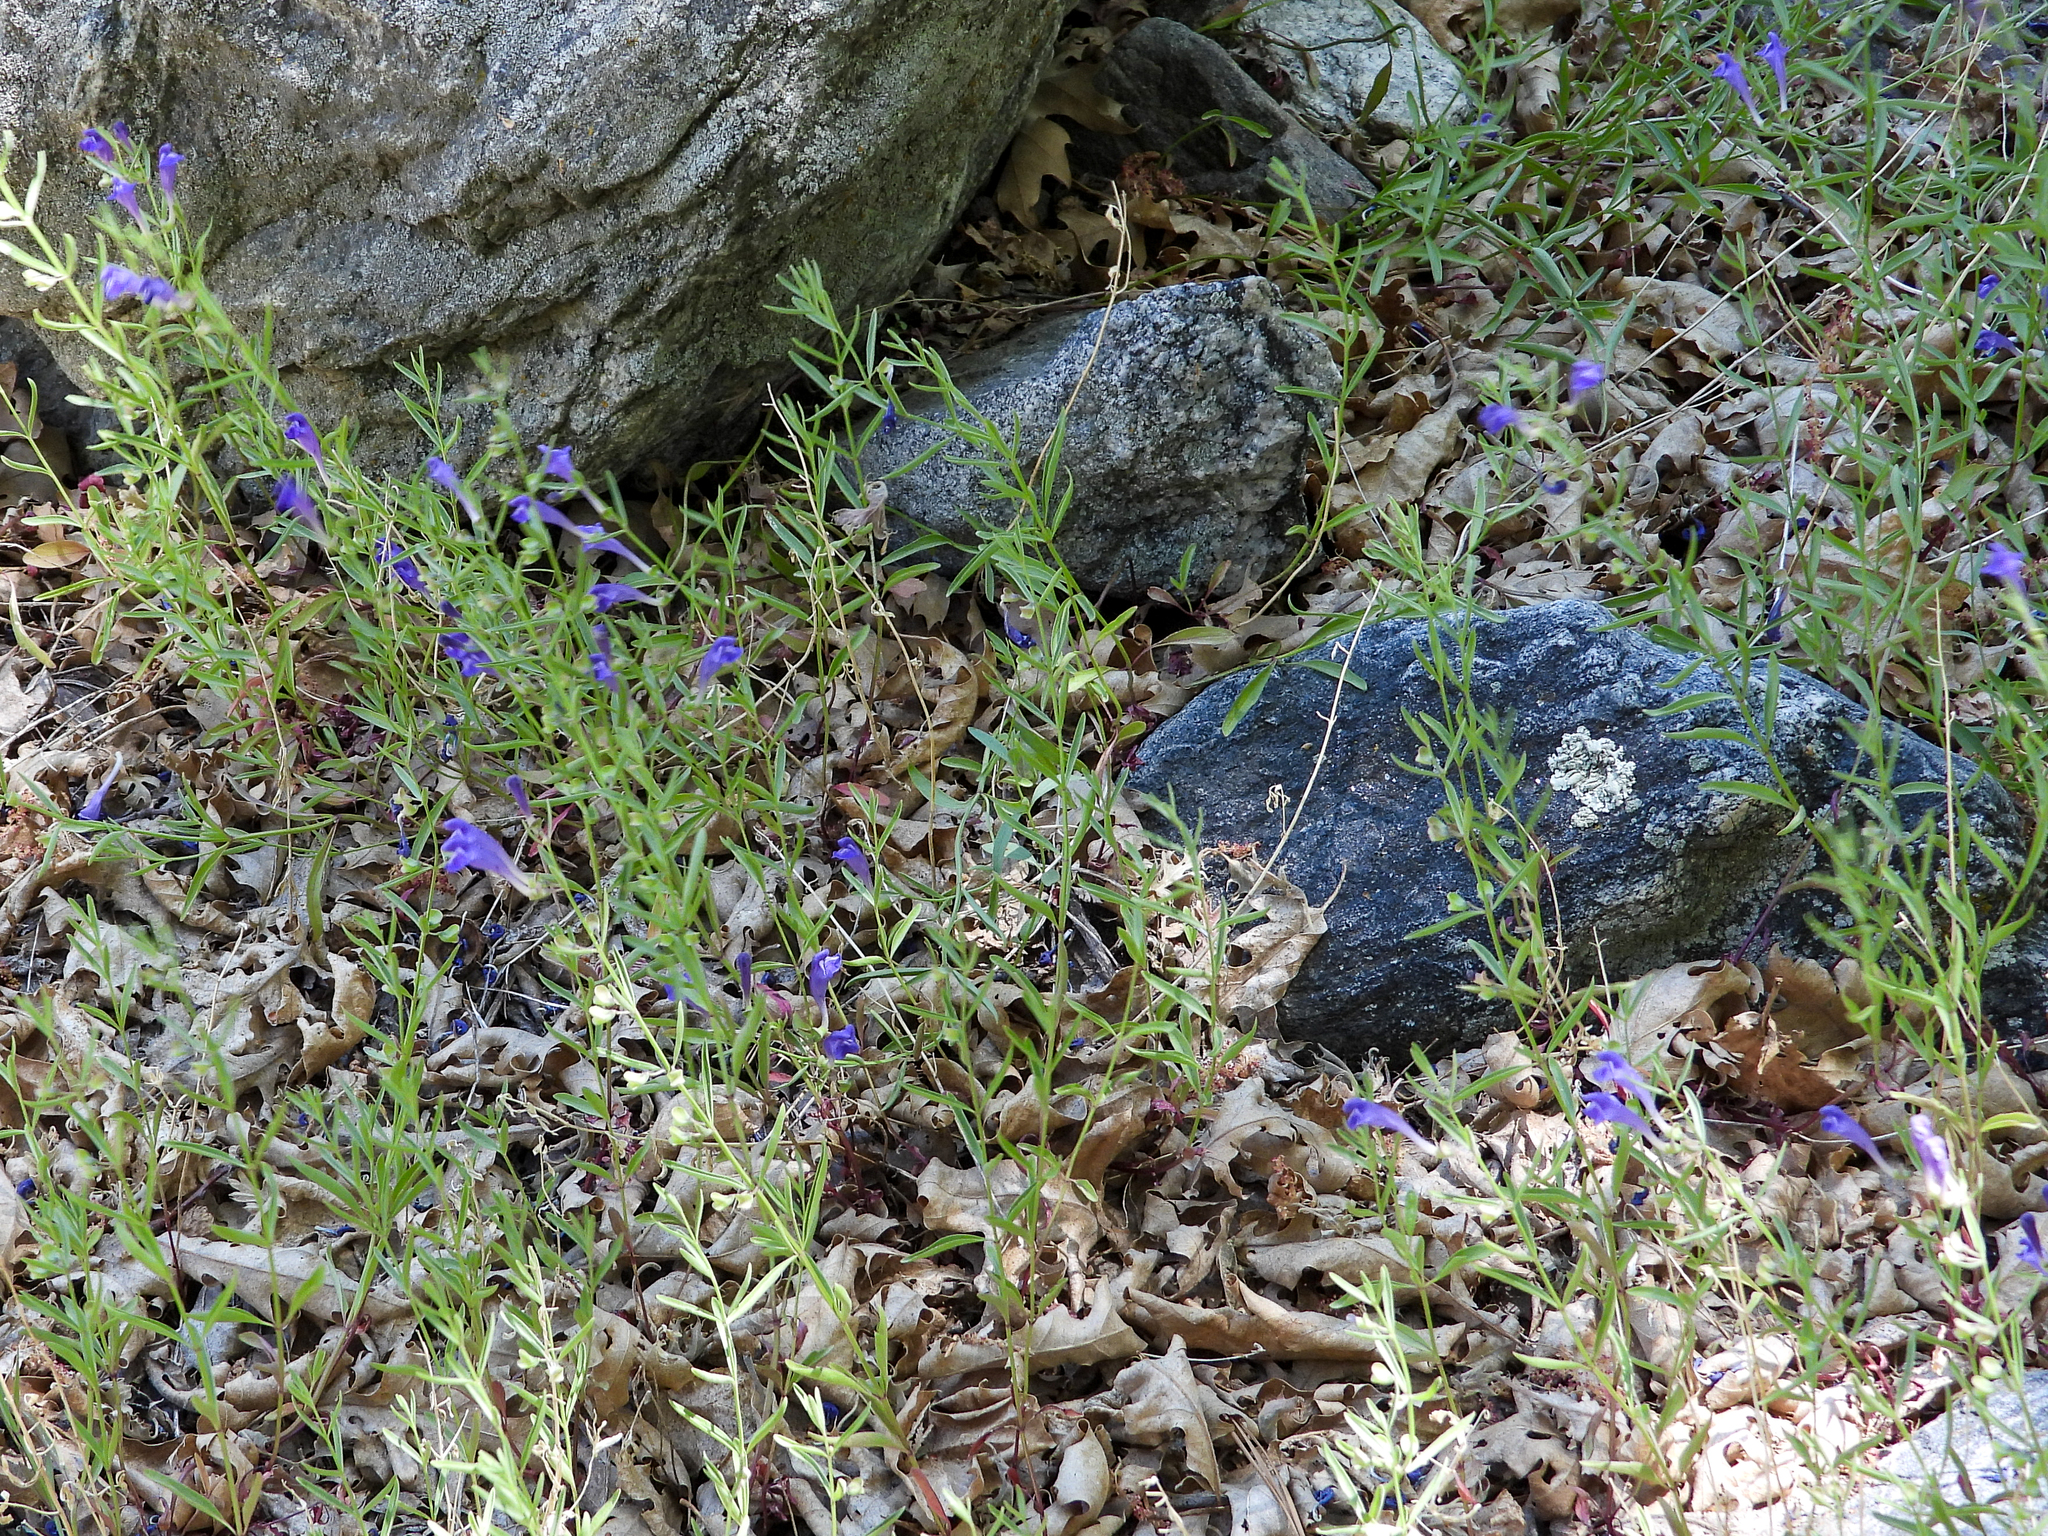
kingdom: Plantae
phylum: Tracheophyta
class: Magnoliopsida
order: Lamiales
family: Lamiaceae
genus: Scutellaria
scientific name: Scutellaria siphocampyloides
